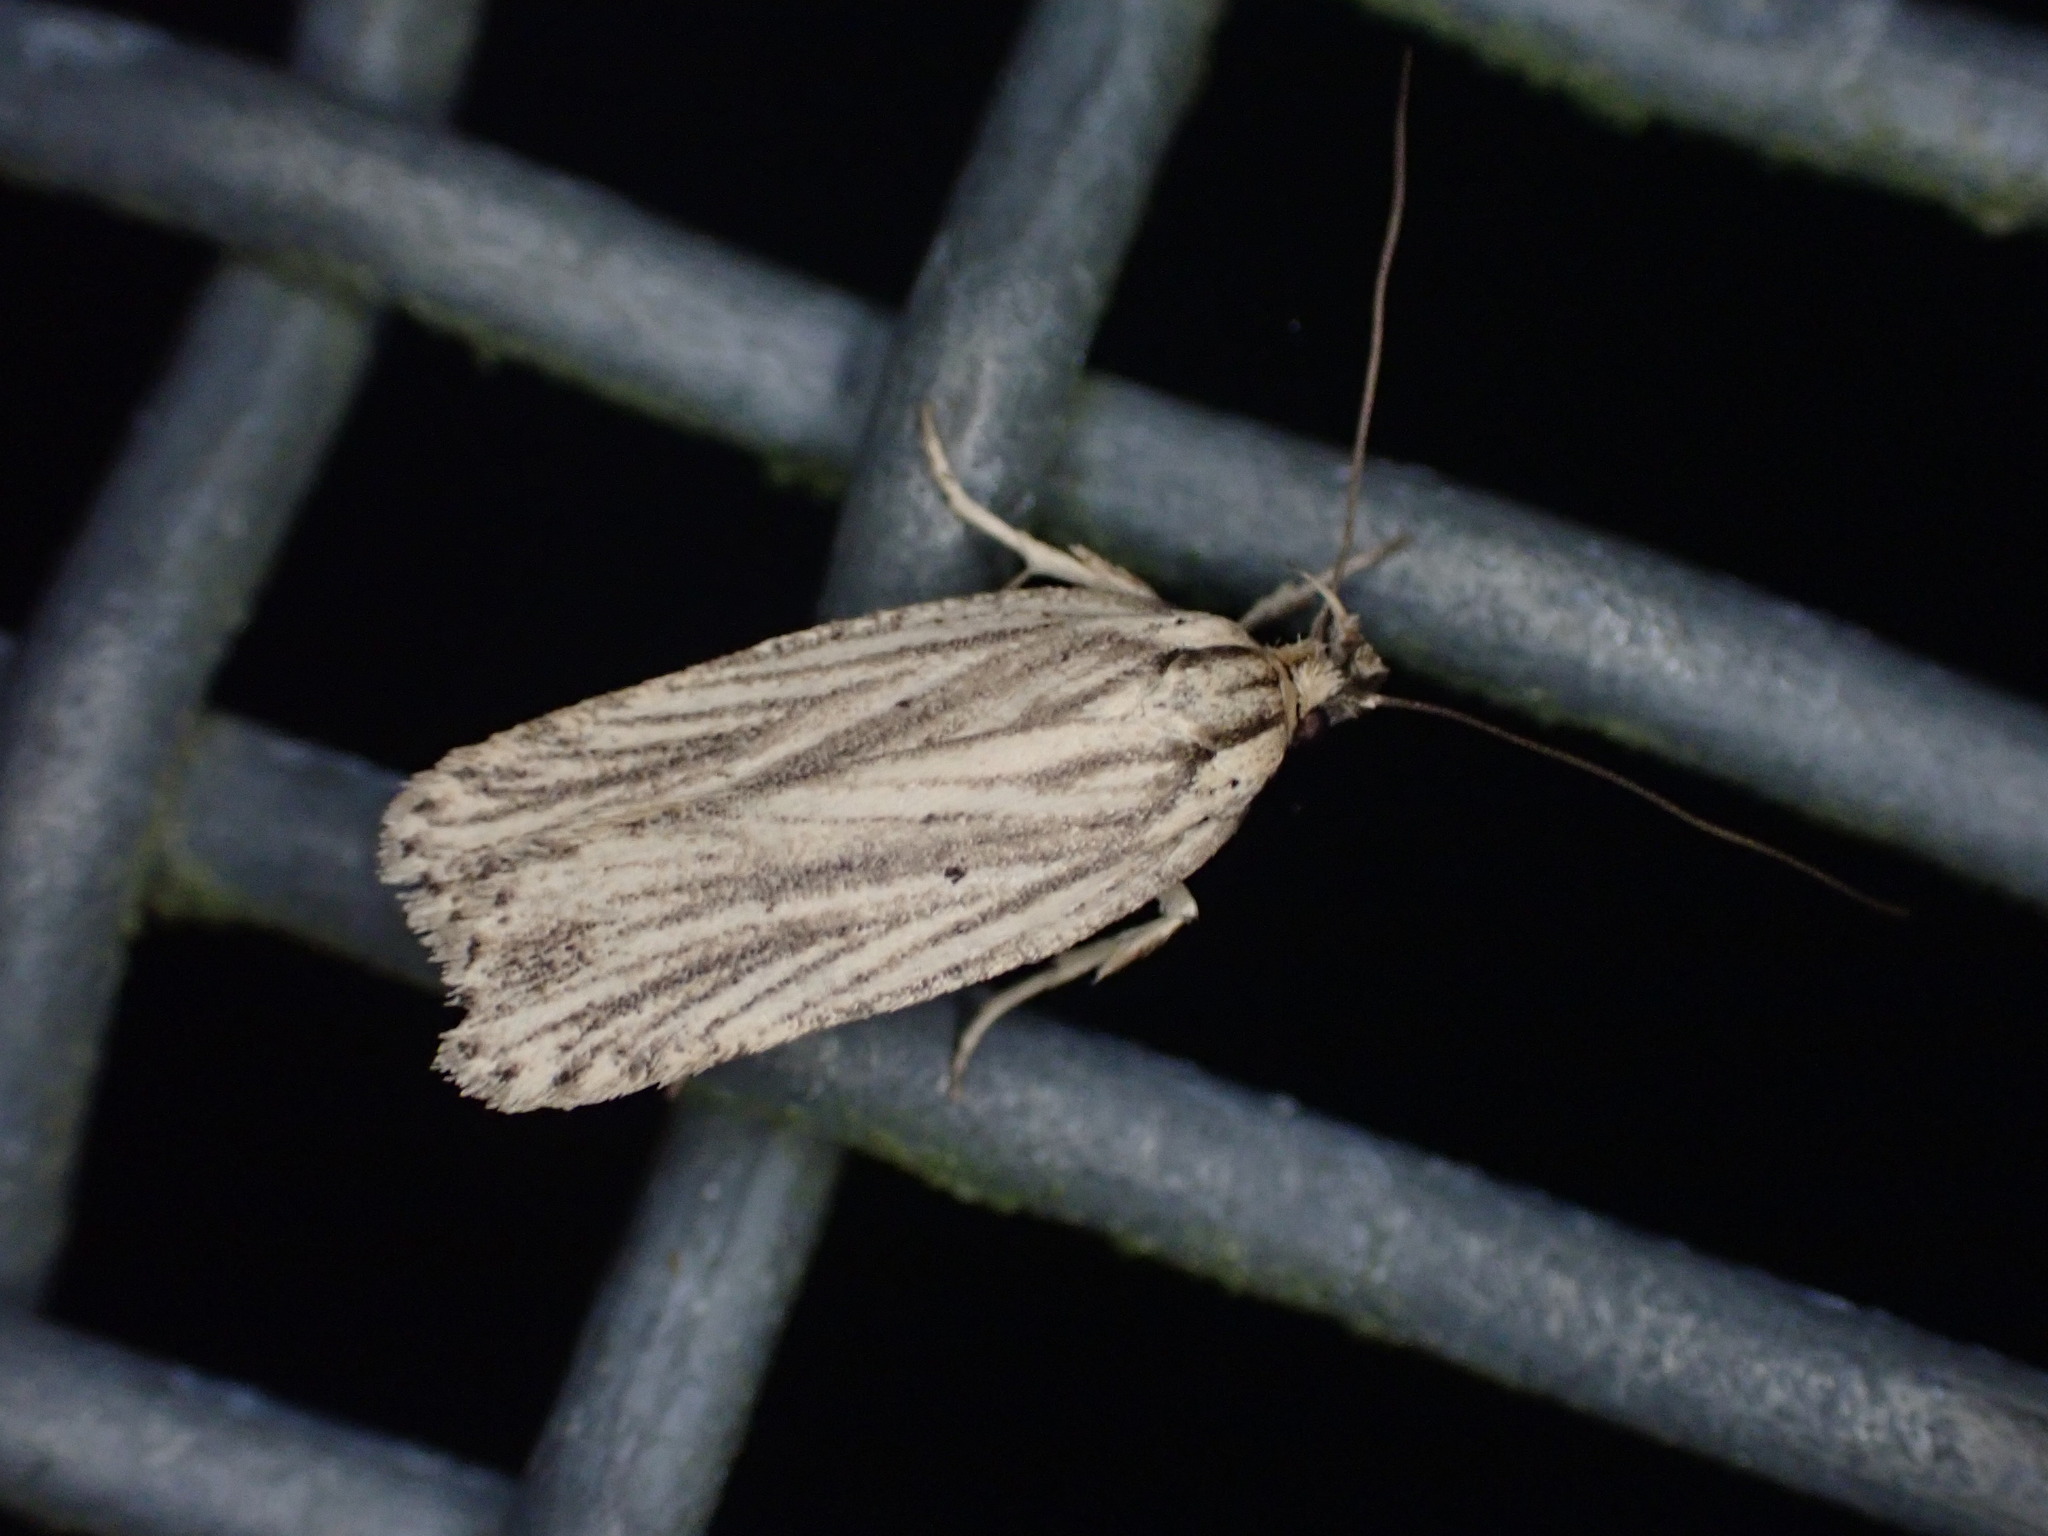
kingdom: Animalia
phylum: Arthropoda
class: Insecta
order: Lepidoptera
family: Depressariidae
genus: Agonopterix
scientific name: Agonopterix
